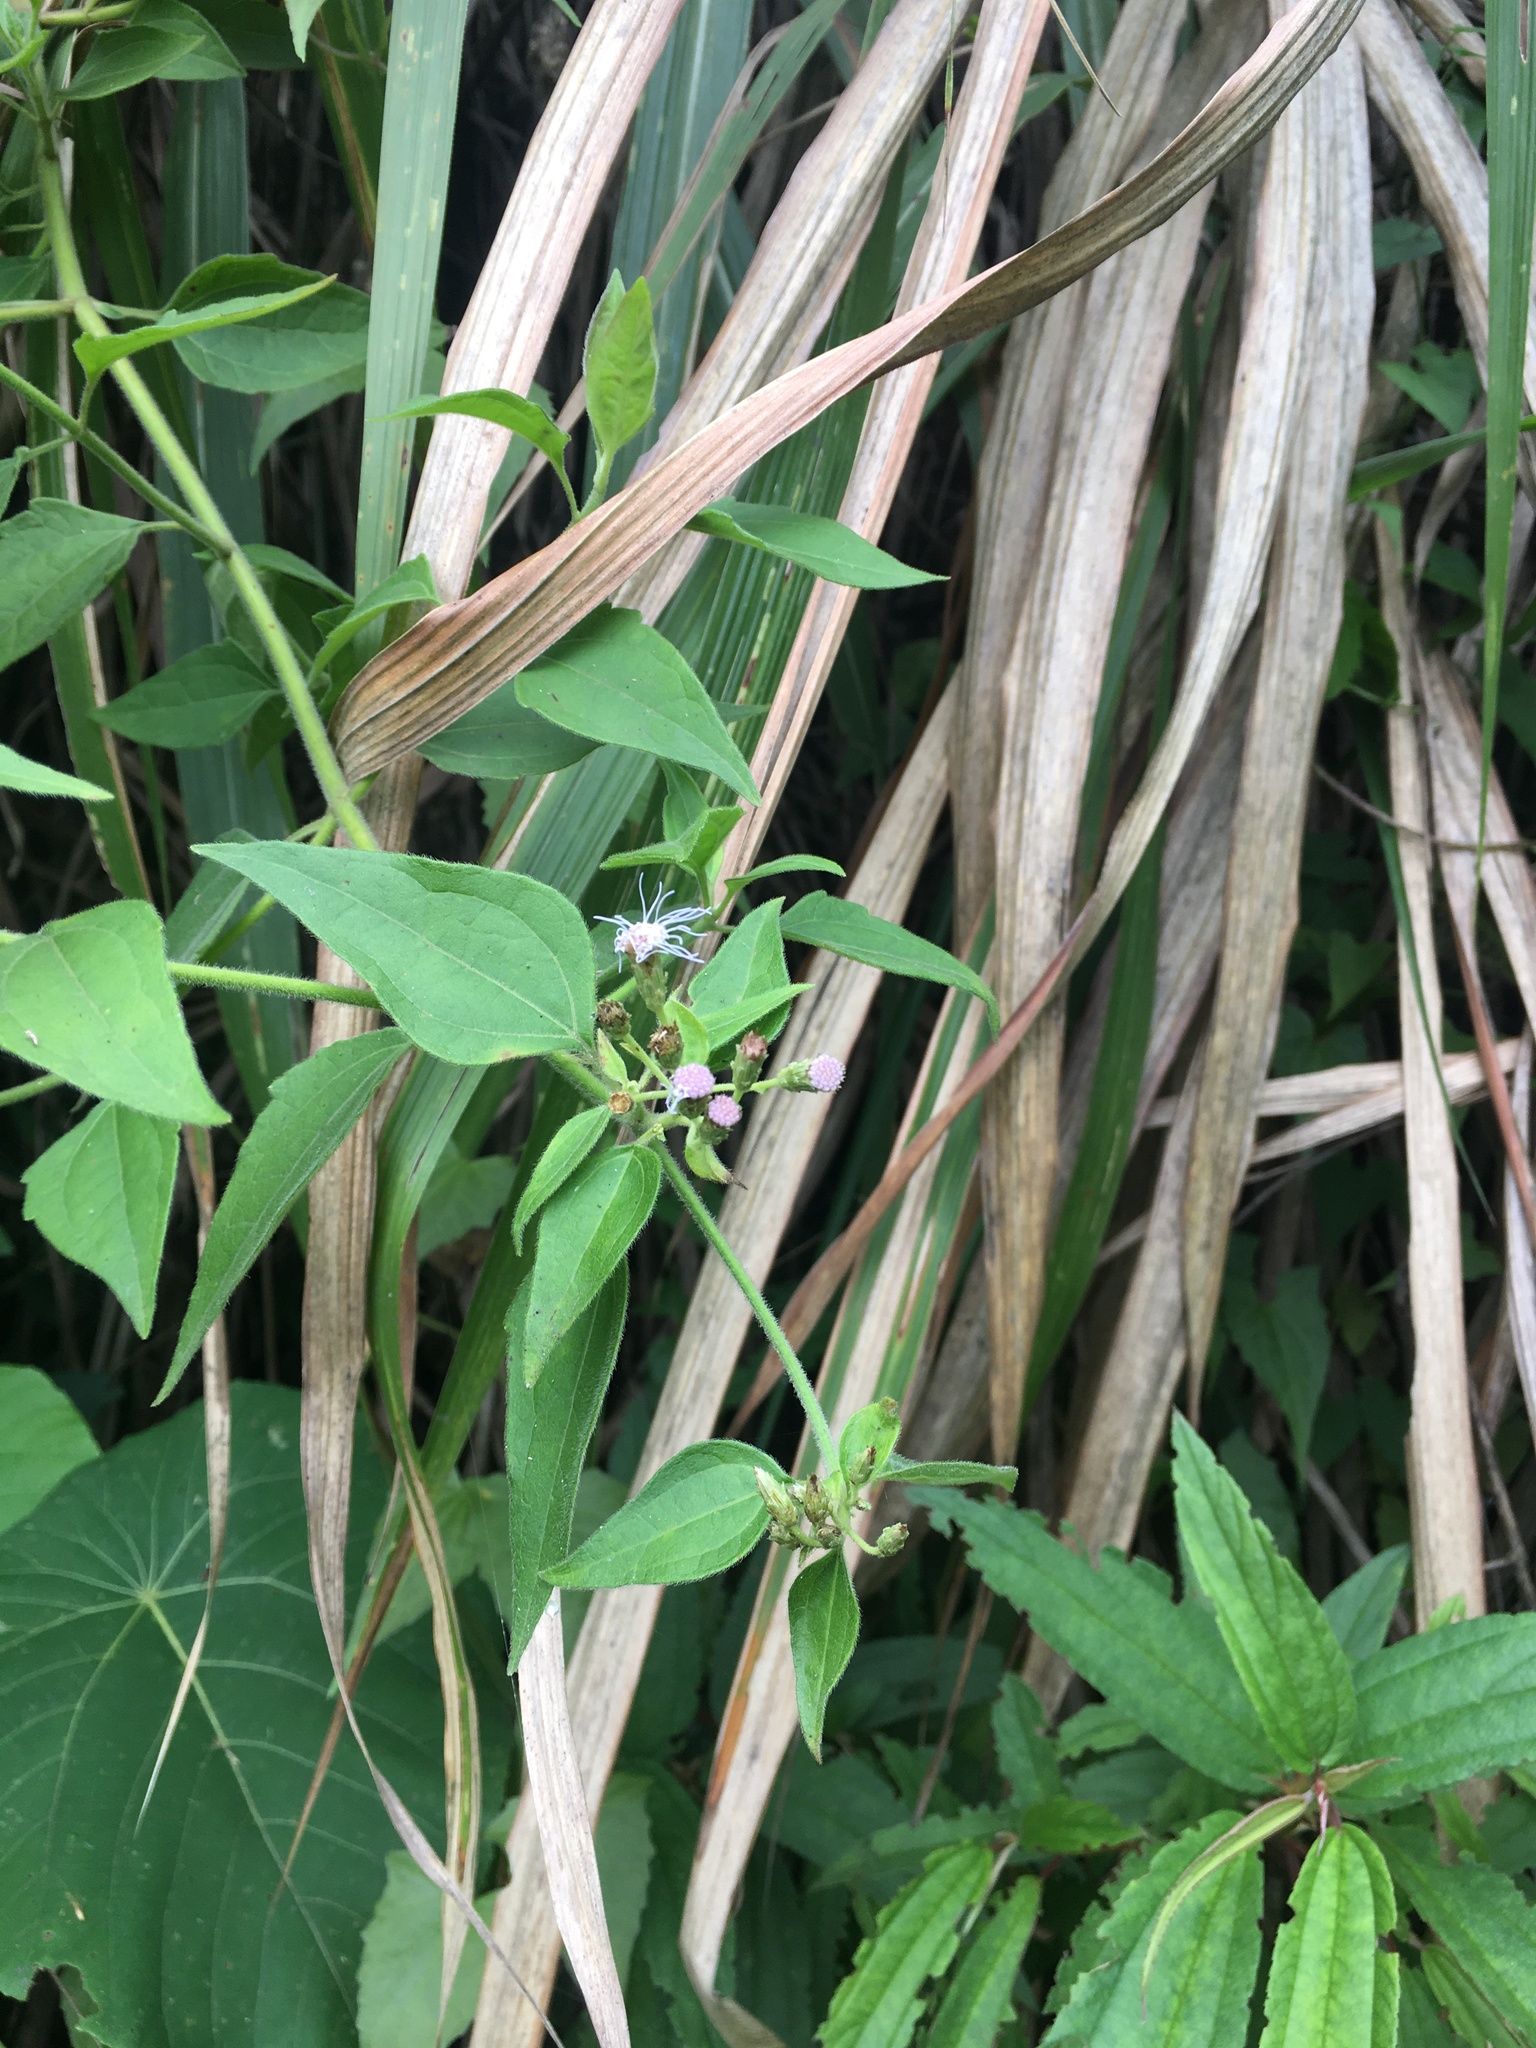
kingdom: Plantae
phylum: Tracheophyta
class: Magnoliopsida
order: Asterales
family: Asteraceae
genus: Chromolaena
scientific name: Chromolaena odorata
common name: Siamweed
